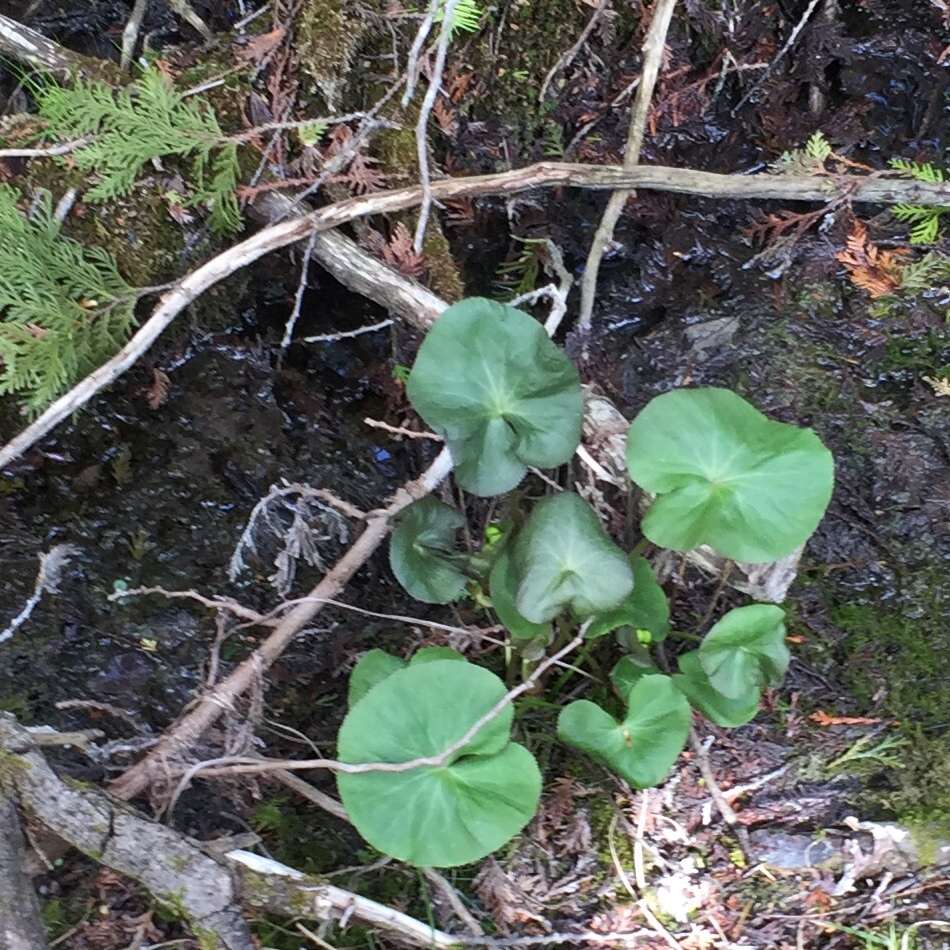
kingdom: Plantae
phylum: Tracheophyta
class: Magnoliopsida
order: Ranunculales
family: Ranunculaceae
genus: Caltha
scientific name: Caltha palustris
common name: Marsh marigold
